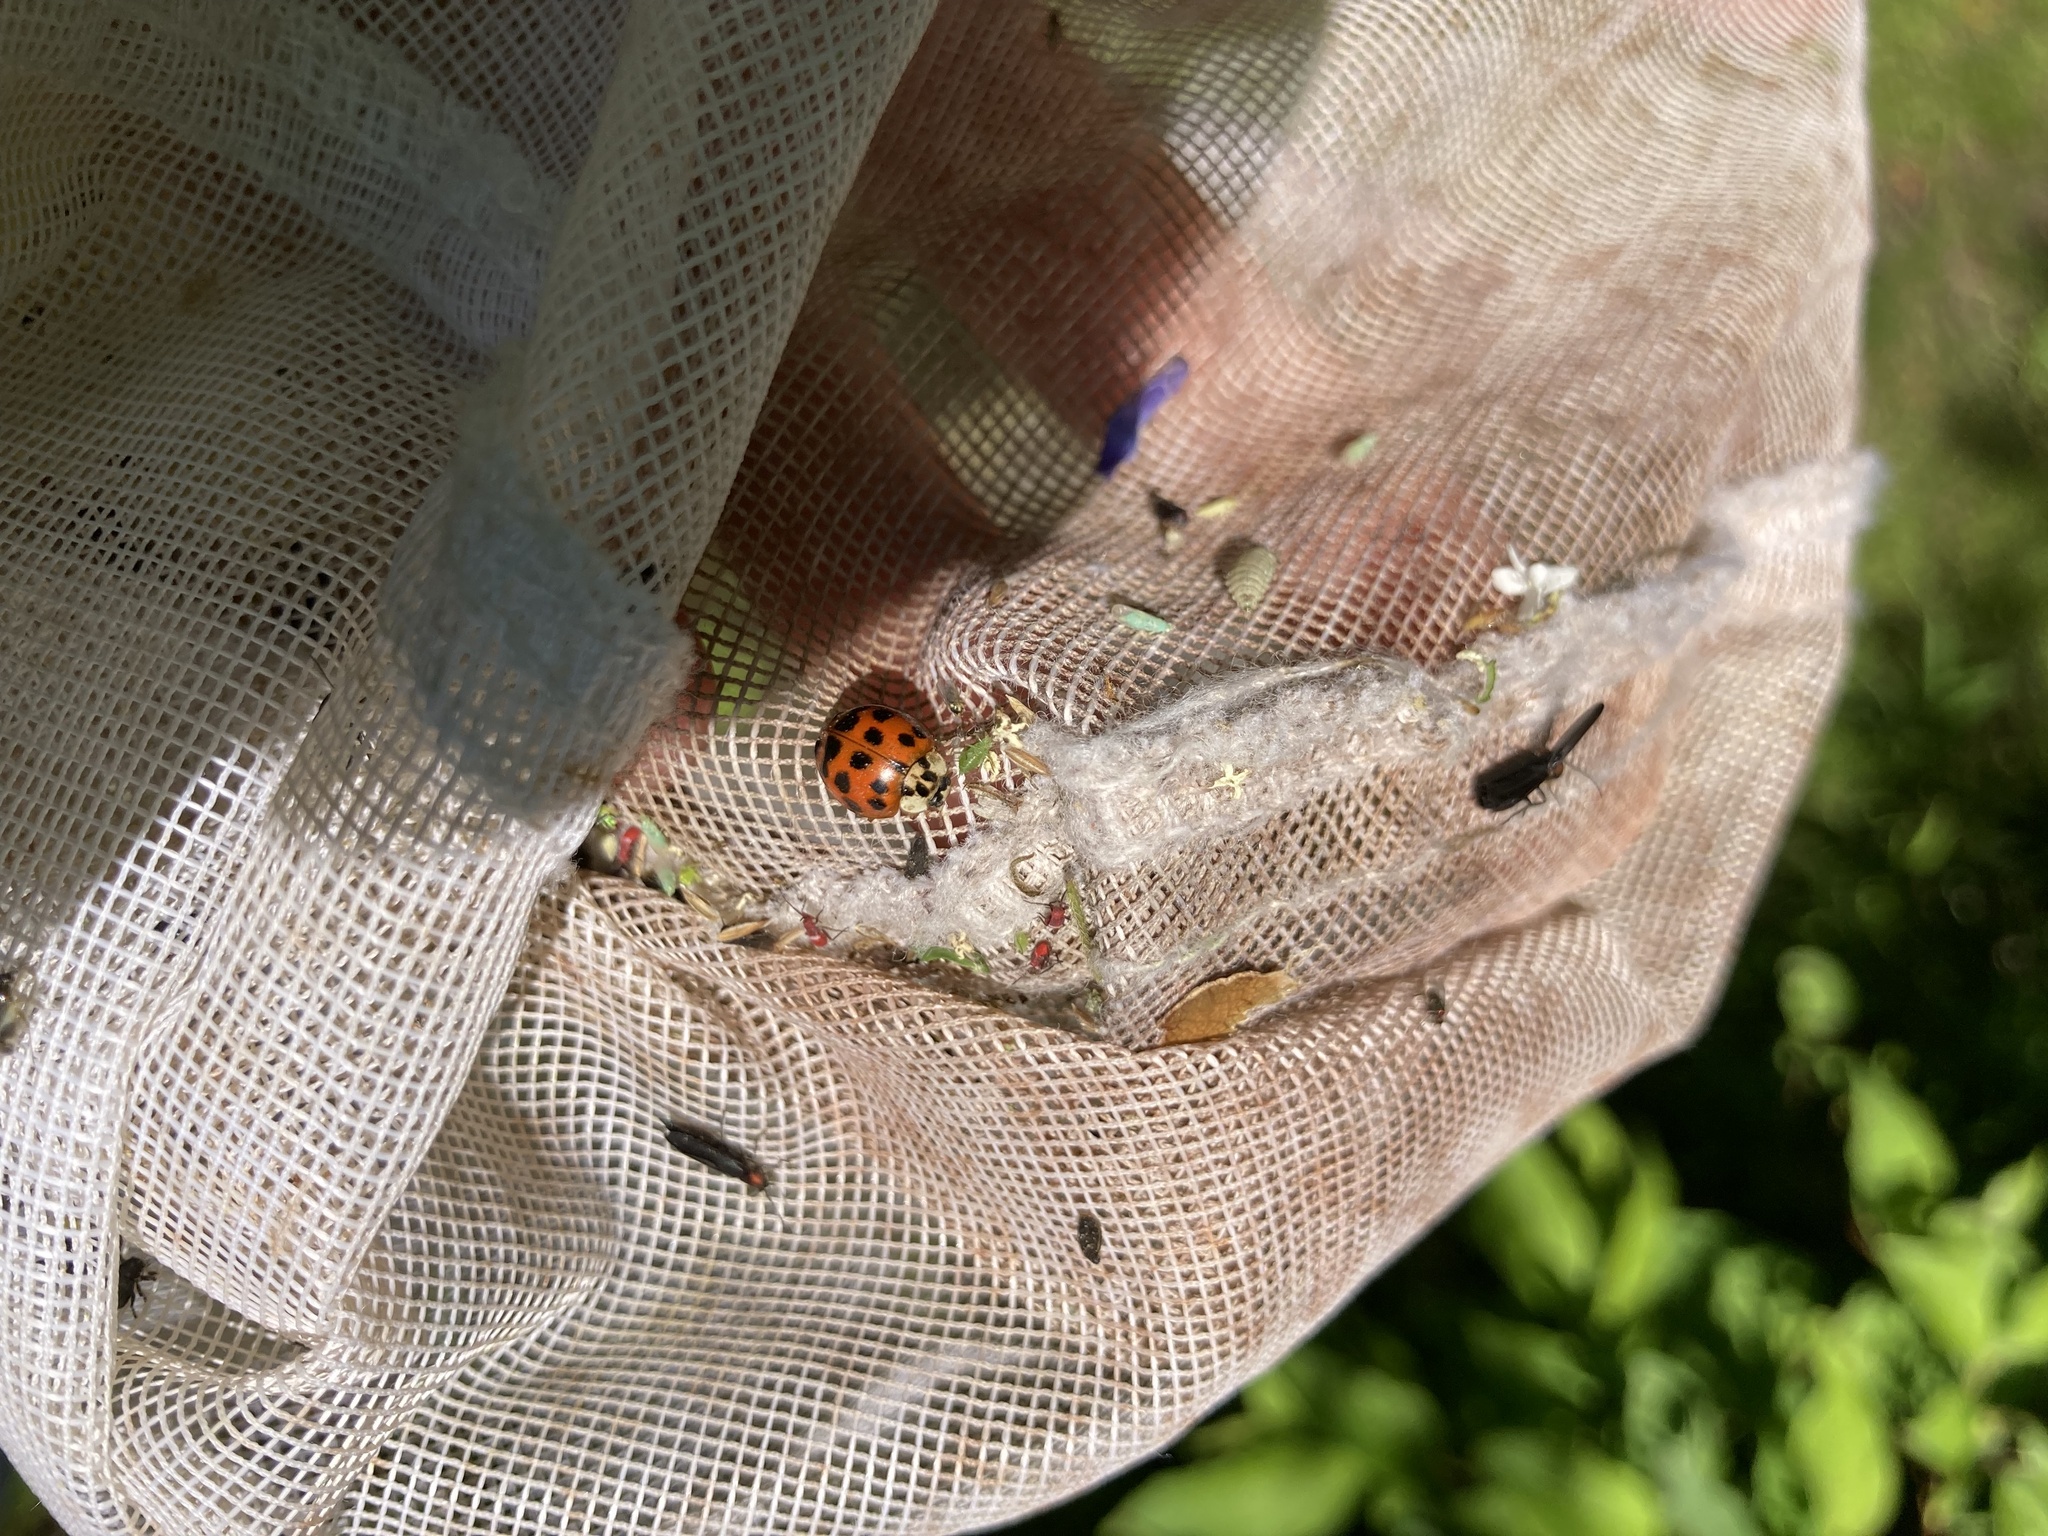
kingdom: Animalia
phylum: Arthropoda
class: Insecta
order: Coleoptera
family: Coccinellidae
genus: Harmonia
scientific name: Harmonia axyridis
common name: Harlequin ladybird
